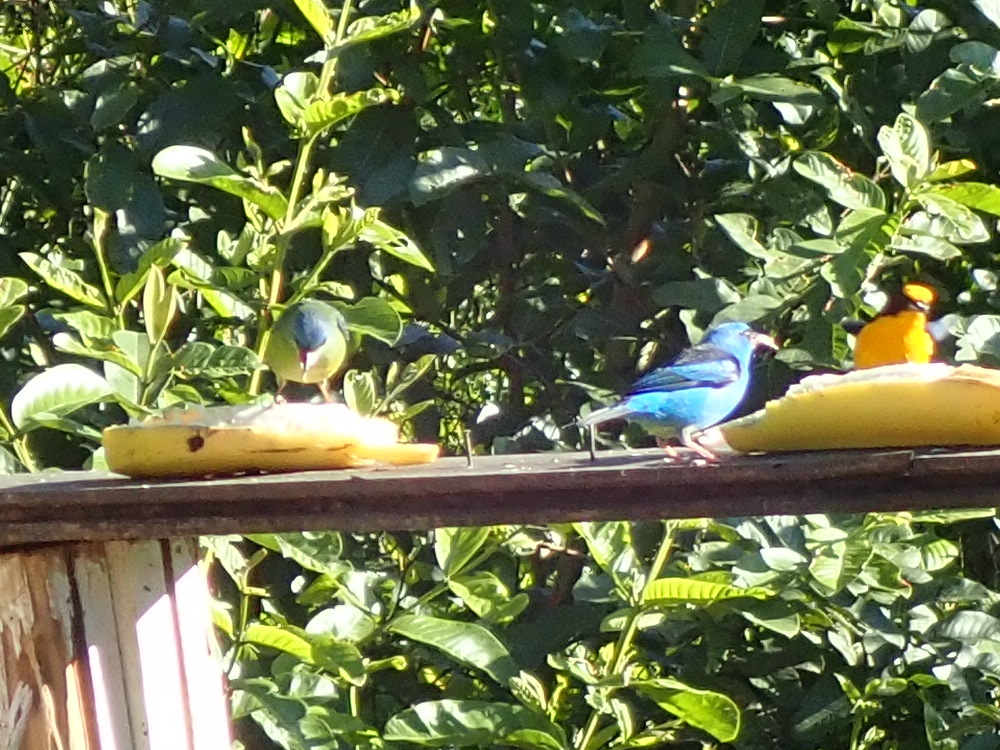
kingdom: Animalia
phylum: Chordata
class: Aves
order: Passeriformes
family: Thraupidae
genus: Dacnis
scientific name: Dacnis cayana
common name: Blue dacnis
